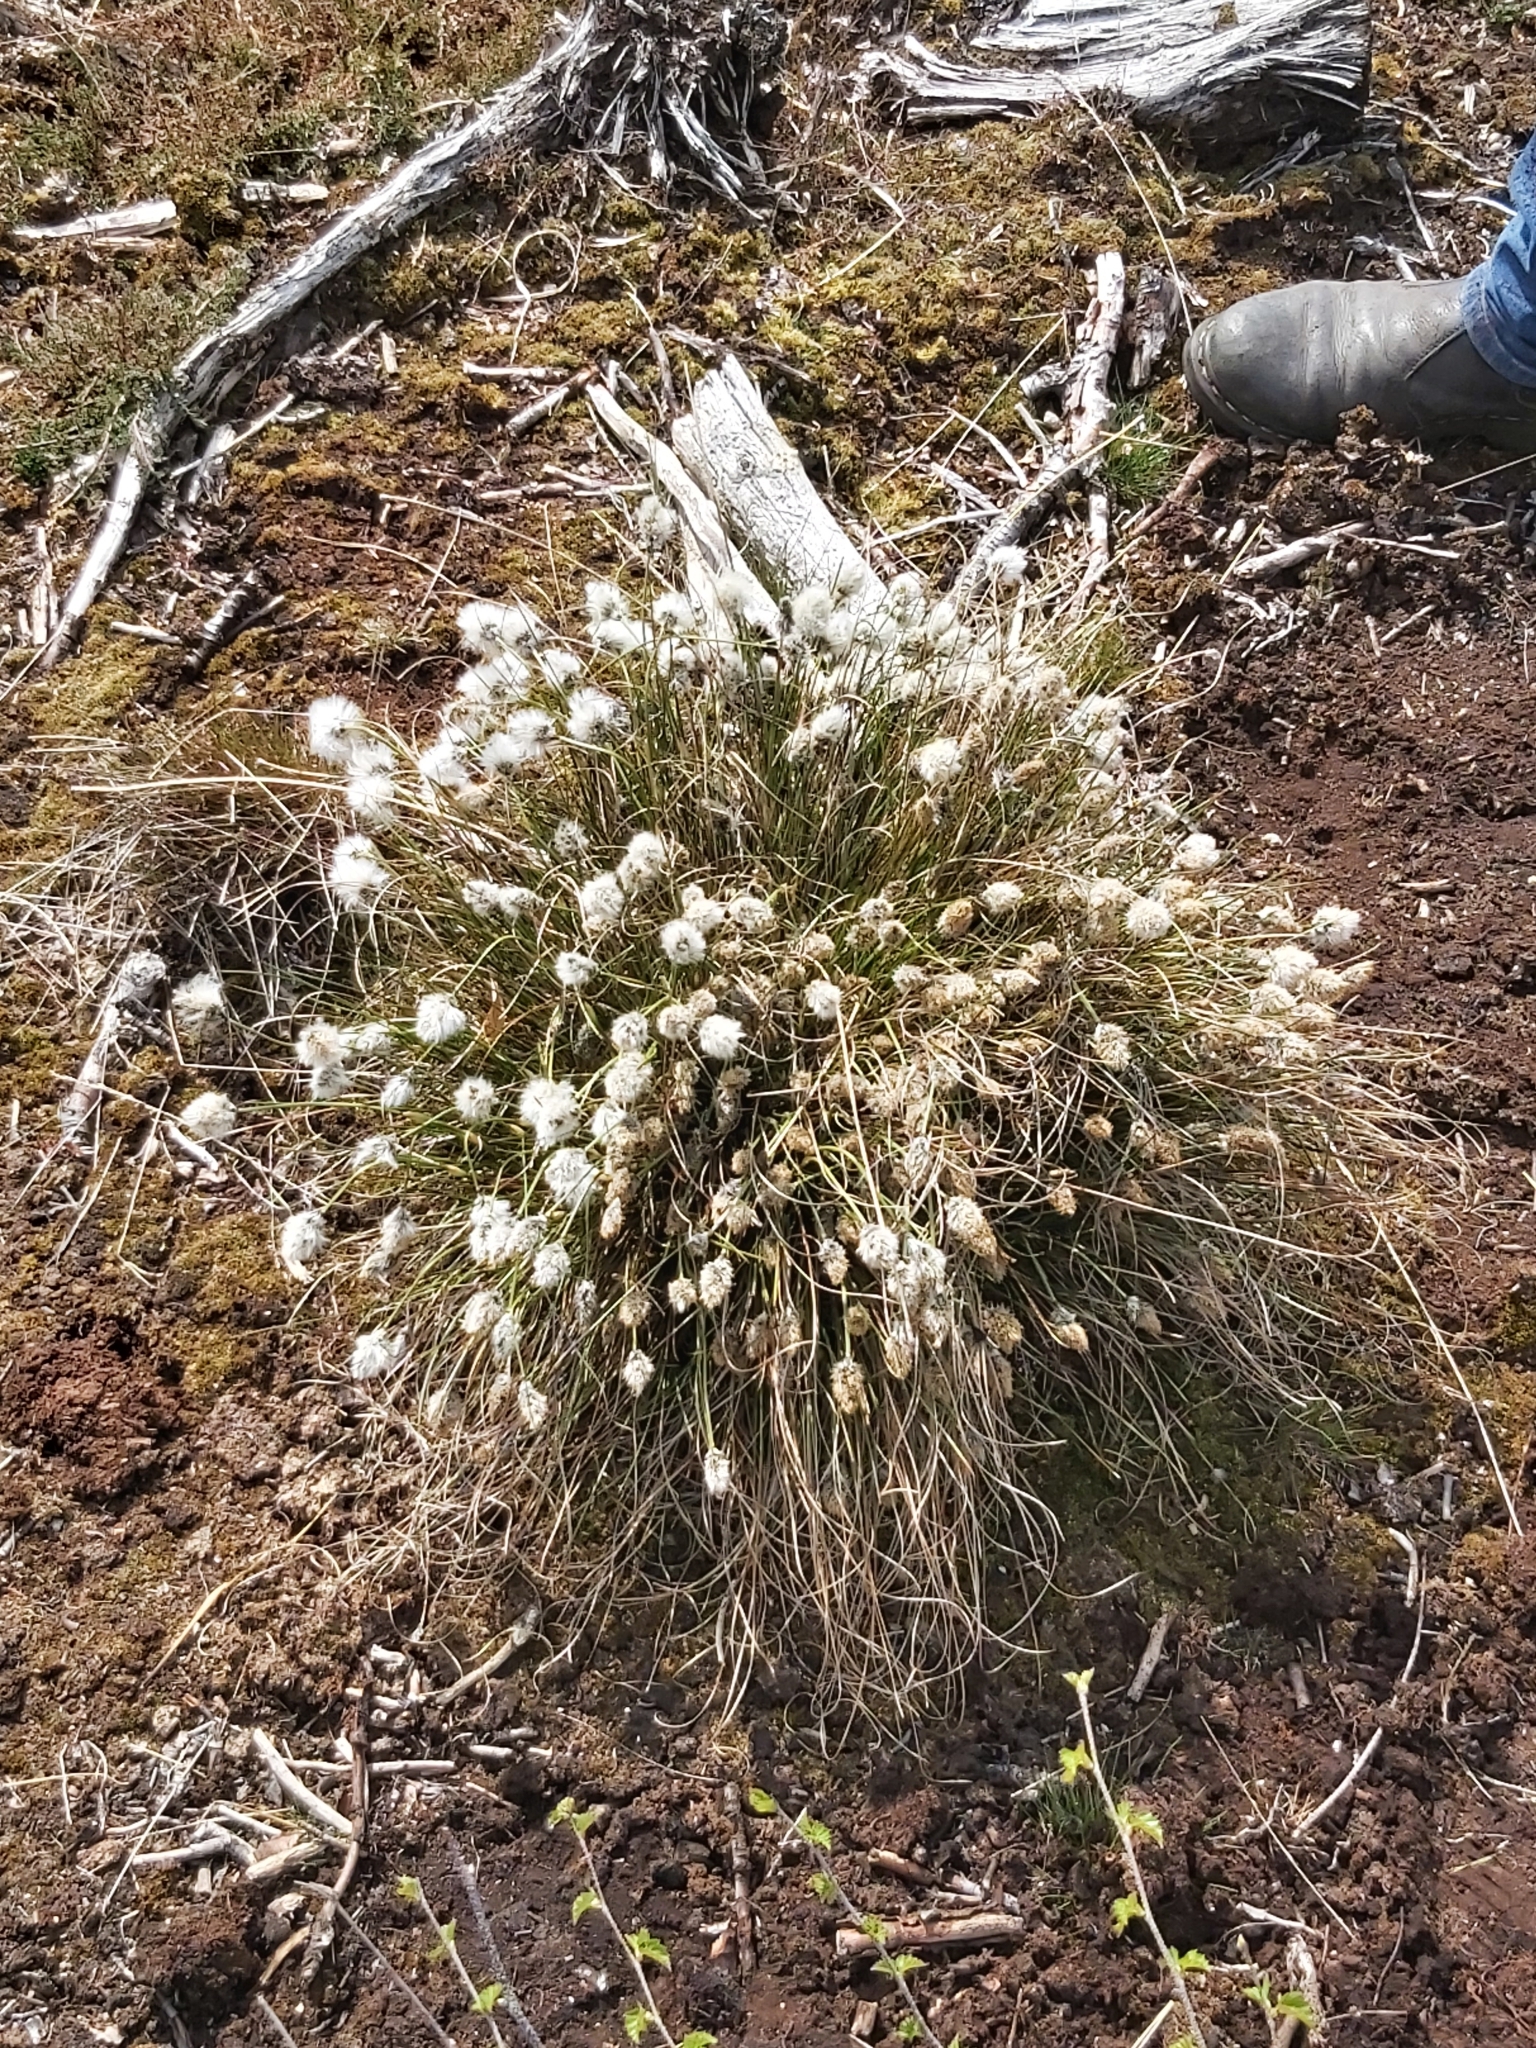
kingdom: Plantae
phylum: Tracheophyta
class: Liliopsida
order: Poales
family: Cyperaceae
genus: Eriophorum
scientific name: Eriophorum vaginatum
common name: Hare's-tail cottongrass
